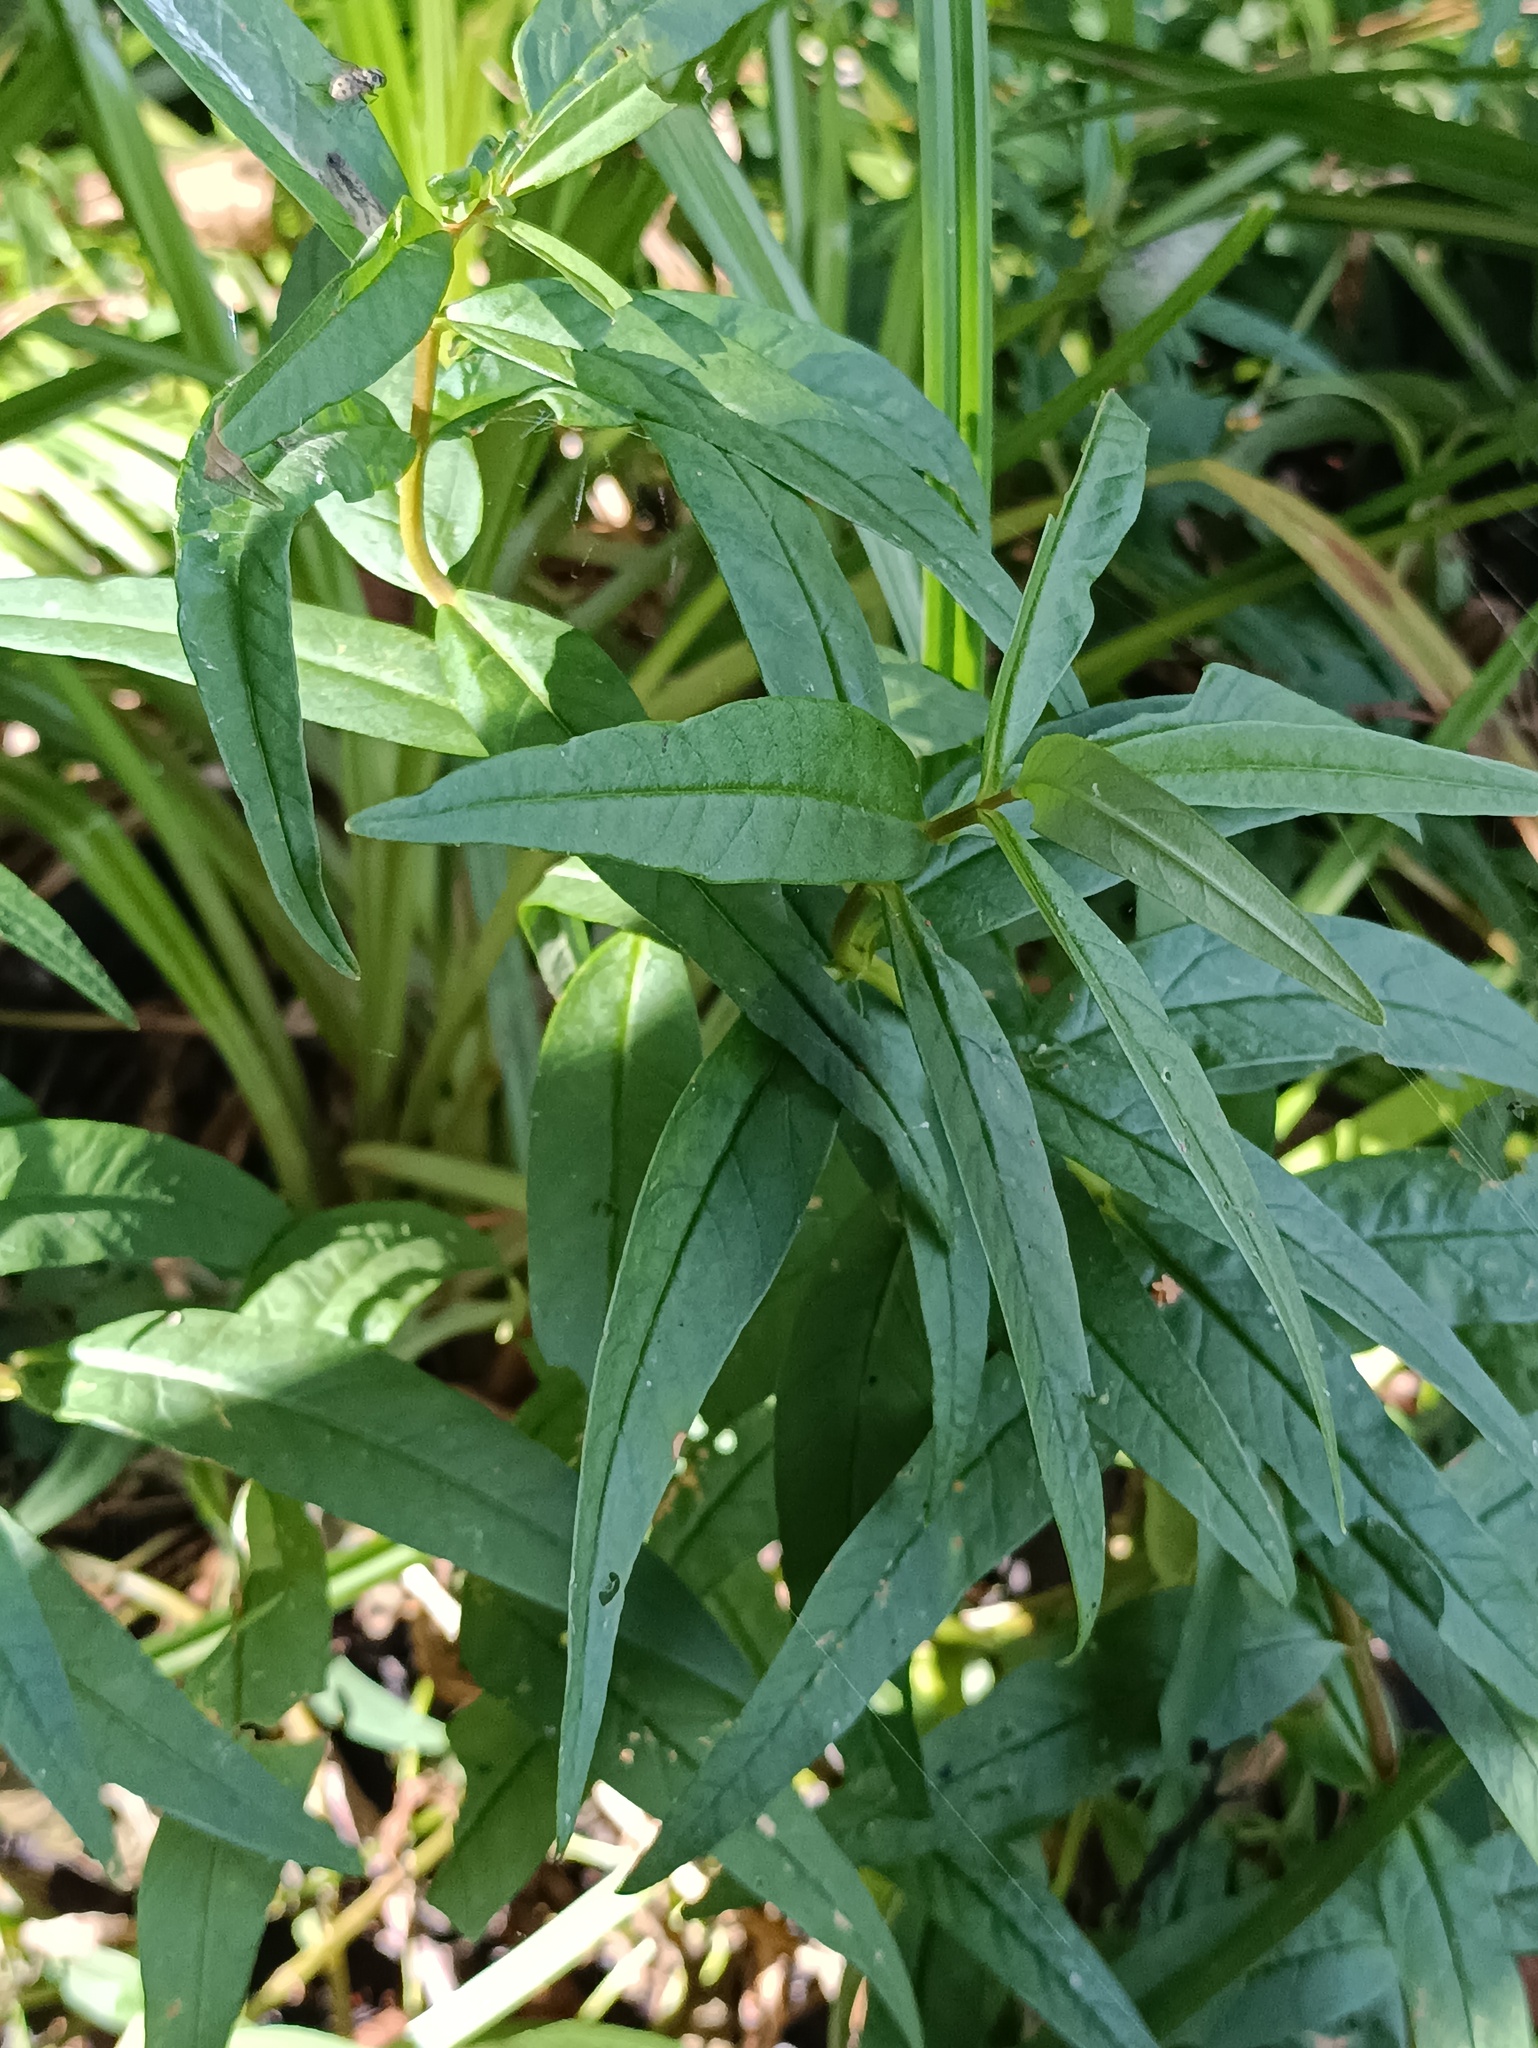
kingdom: Plantae
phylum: Tracheophyta
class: Magnoliopsida
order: Ericales
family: Primulaceae
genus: Lysimachia
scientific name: Lysimachia thyrsiflora
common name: Tufted loosestrife
